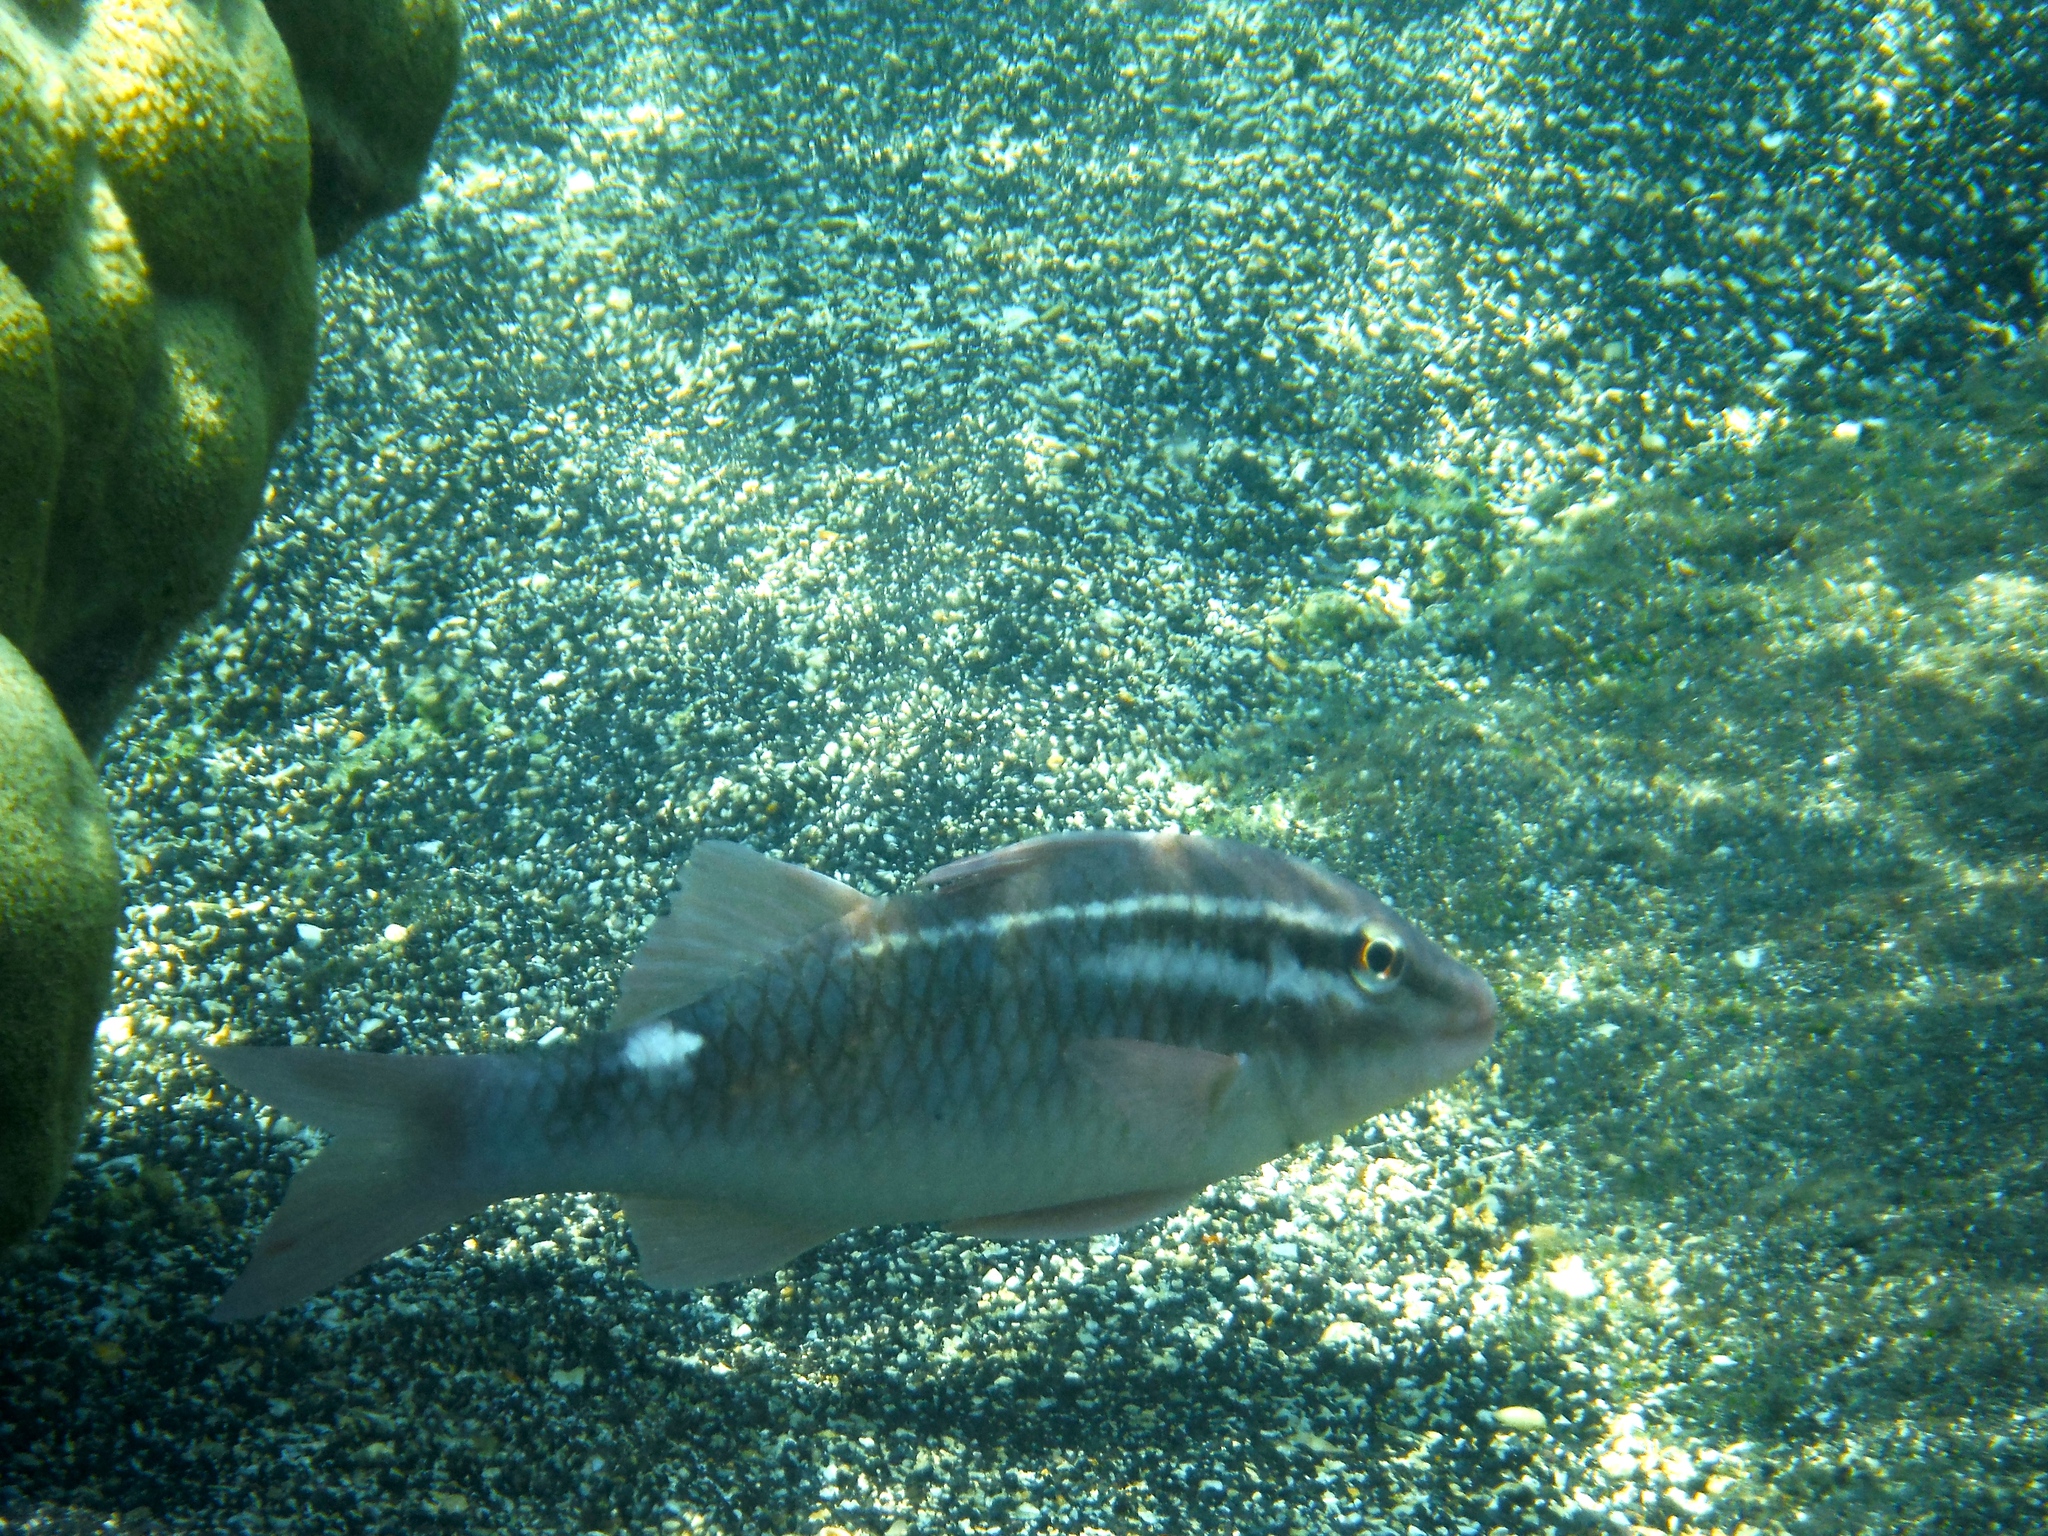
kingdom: Animalia
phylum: Chordata
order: Perciformes
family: Mullidae
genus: Parupeneus
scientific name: Parupeneus porphyreus
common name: Whitesaddle goatfish
